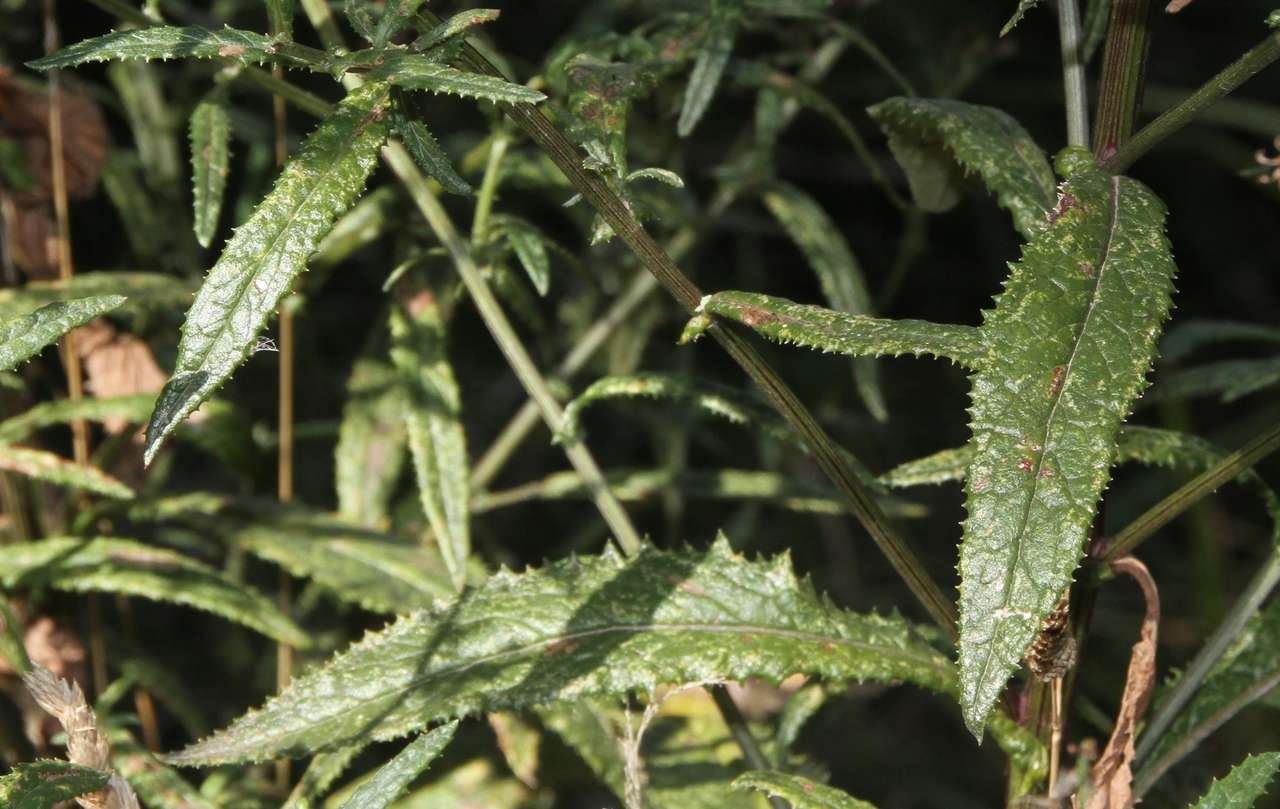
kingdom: Plantae
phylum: Tracheophyta
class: Magnoliopsida
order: Asterales
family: Asteraceae
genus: Senecio
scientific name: Senecio minimus
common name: Toothed fireweed
